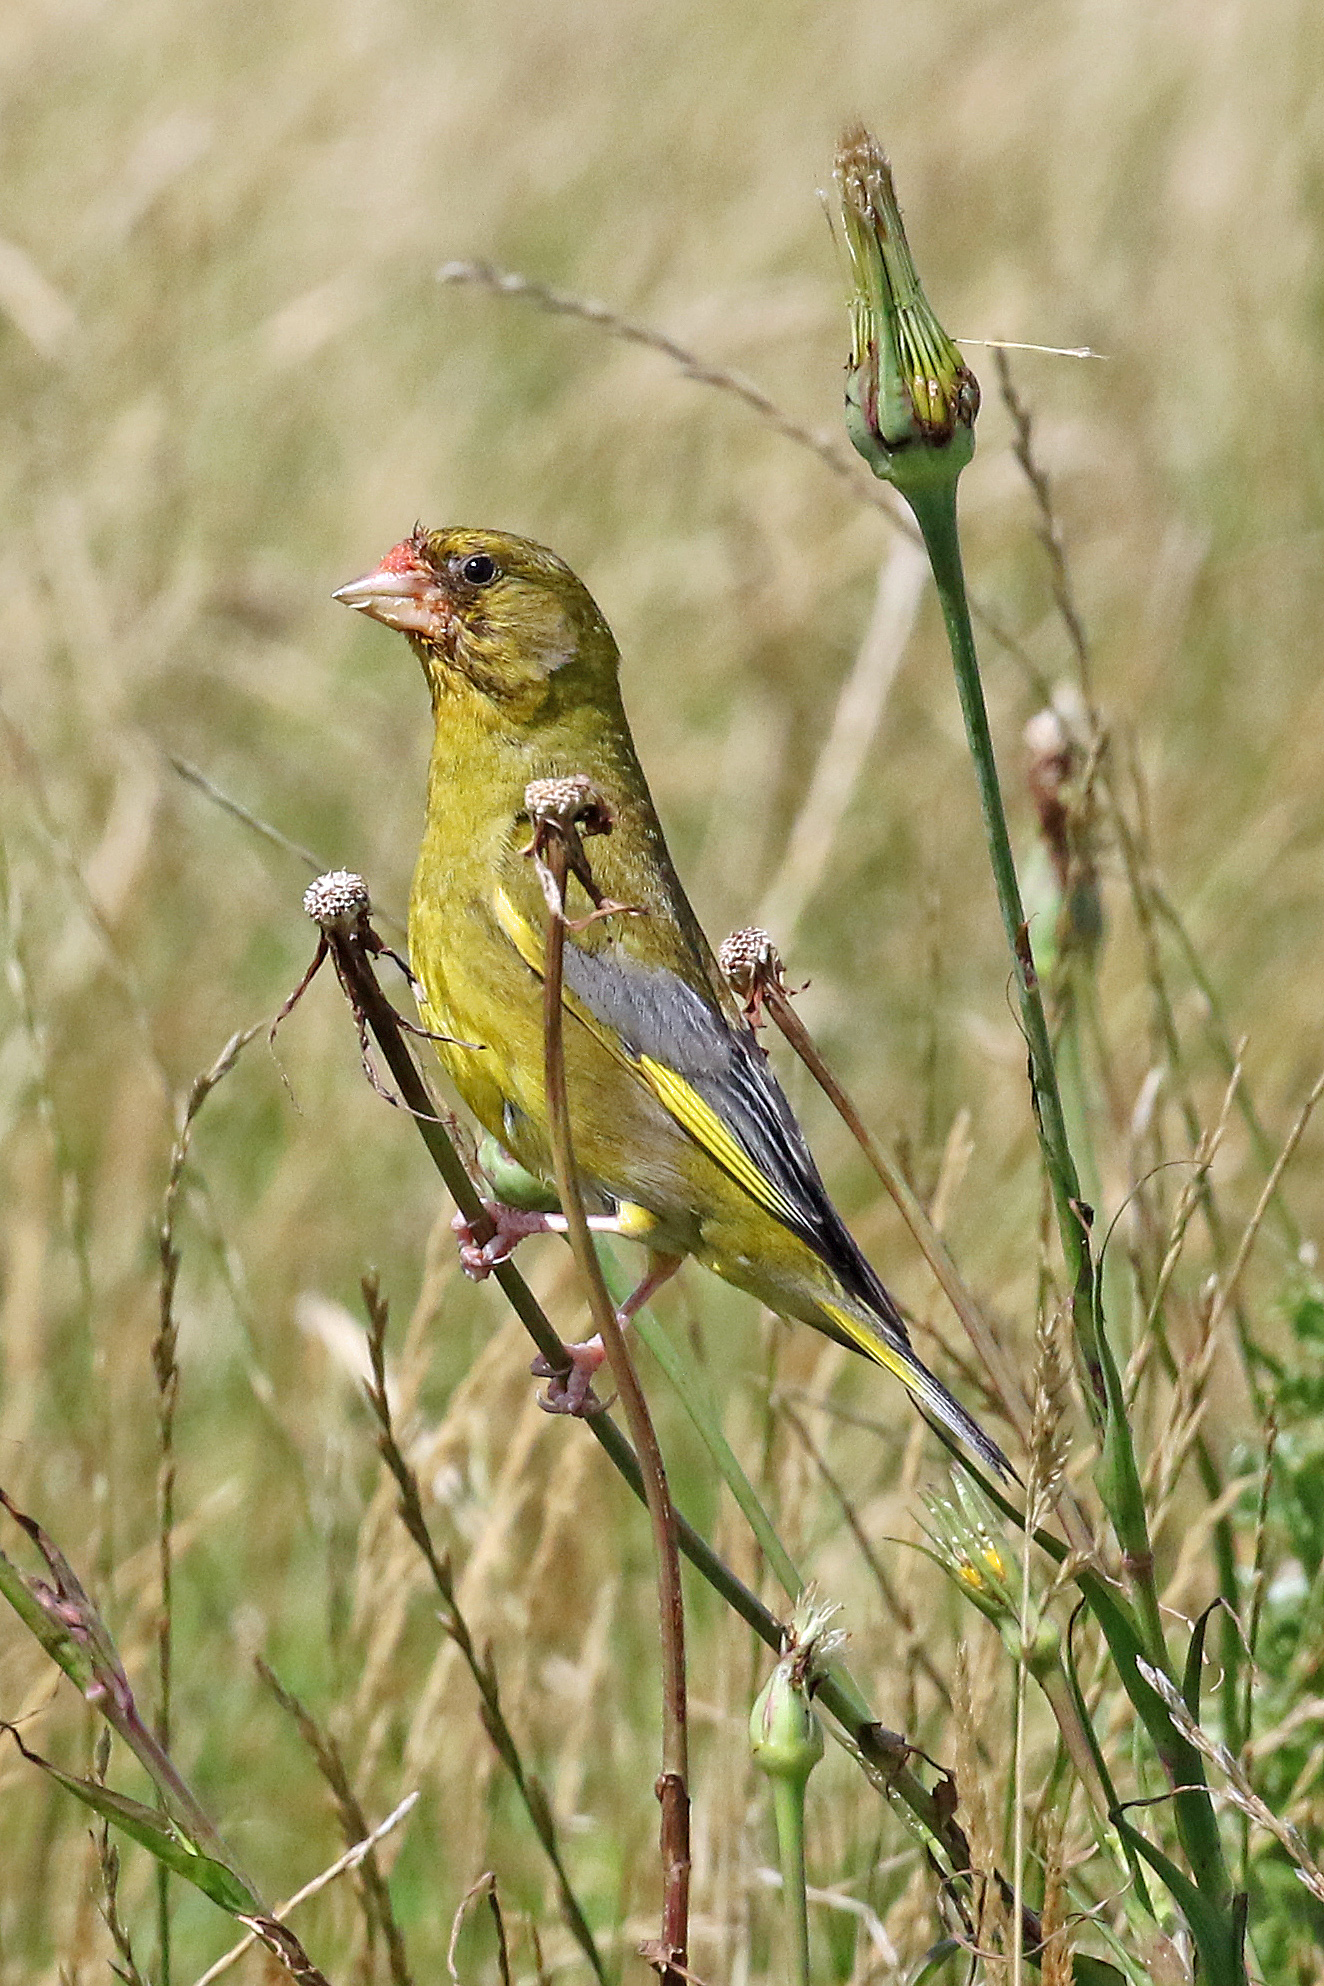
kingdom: Plantae
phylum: Tracheophyta
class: Liliopsida
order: Poales
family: Poaceae
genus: Chloris
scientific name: Chloris chloris
